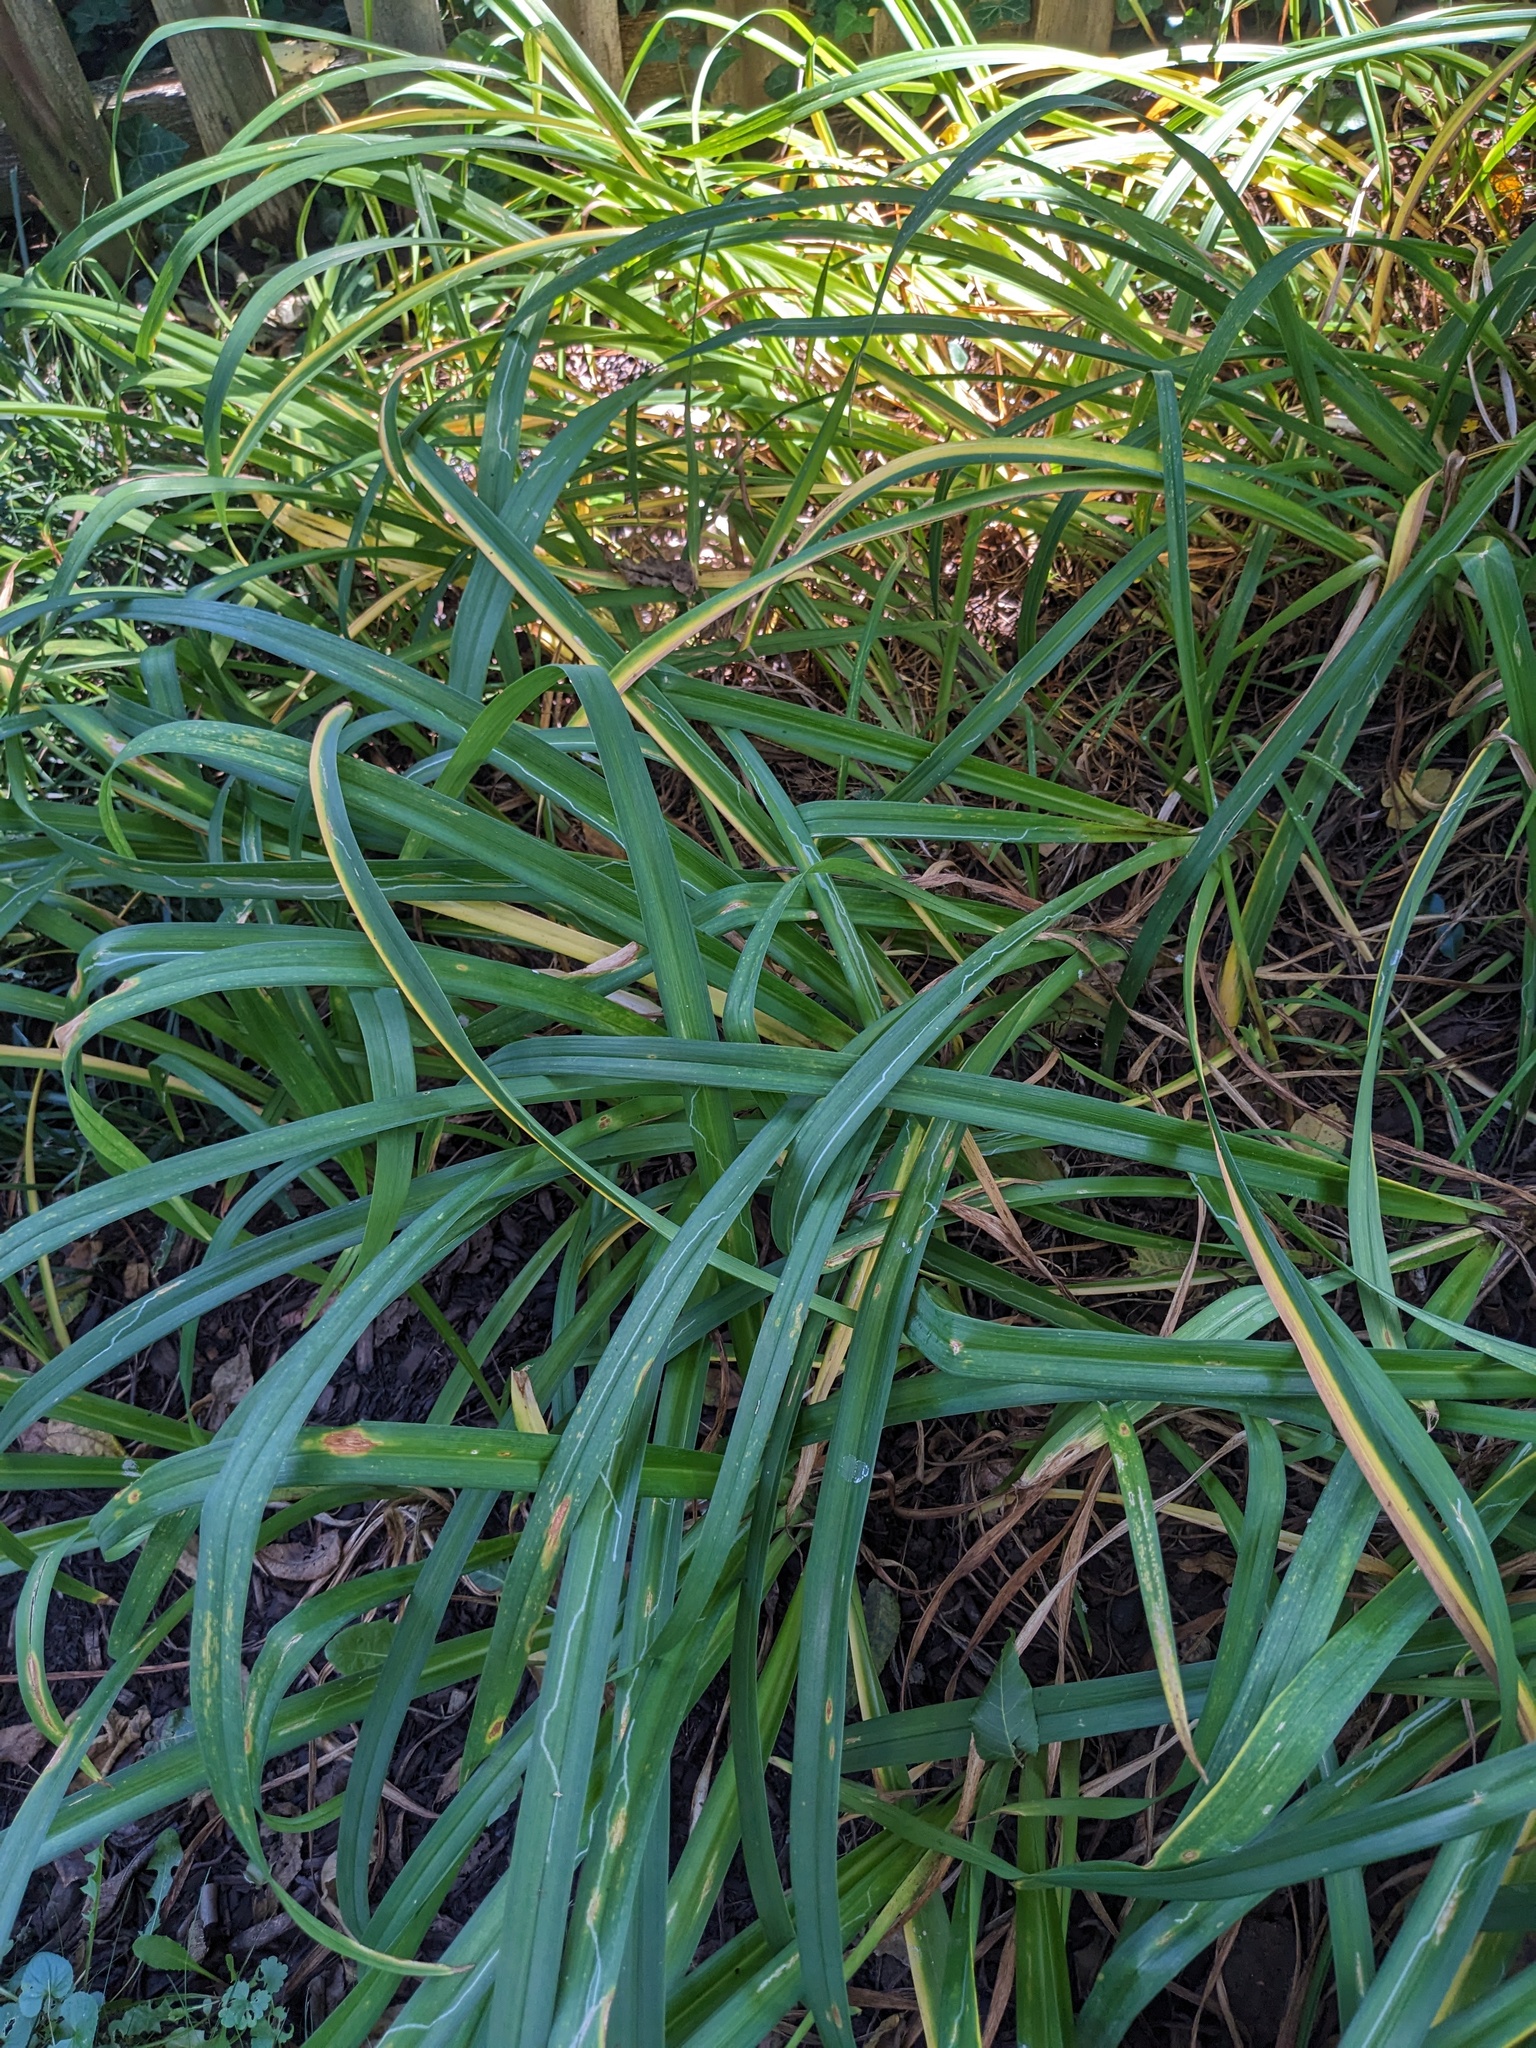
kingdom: Plantae
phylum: Tracheophyta
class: Liliopsida
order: Asparagales
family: Asparagaceae
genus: Liriope
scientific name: Liriope muscari
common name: Big blue lilyturf
